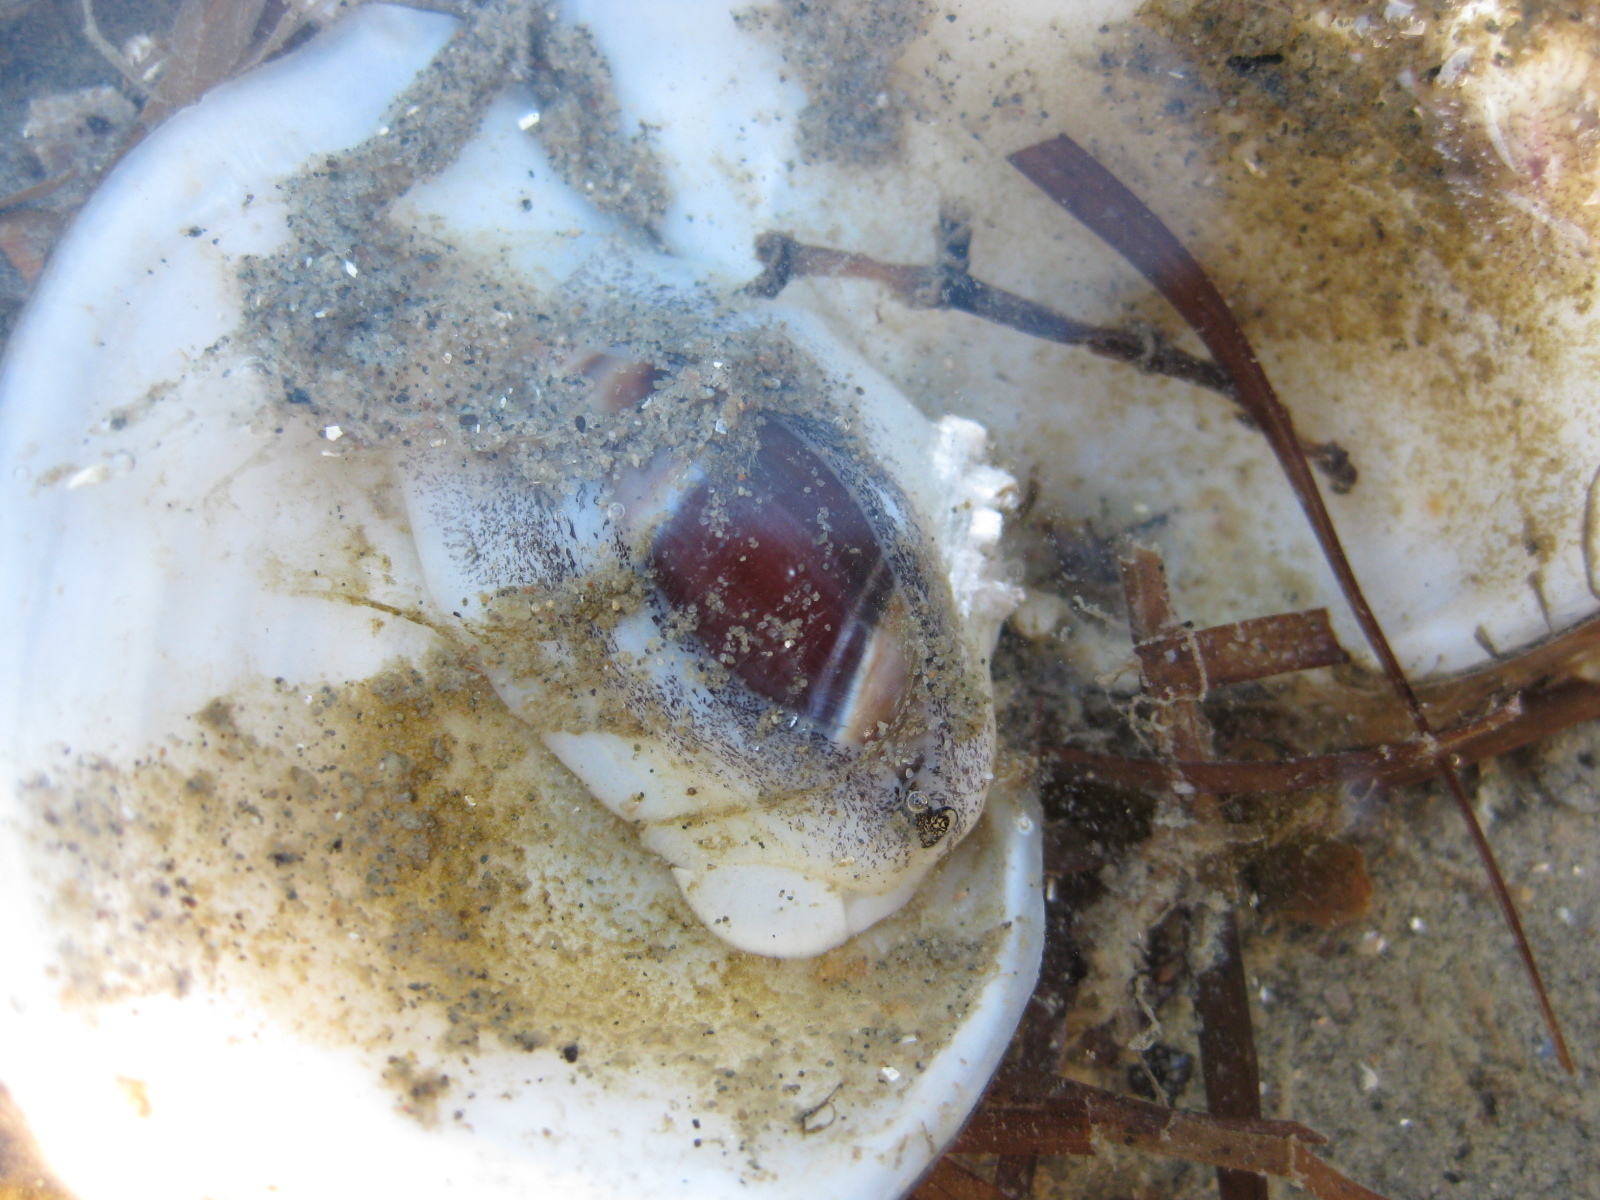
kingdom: Animalia
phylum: Mollusca
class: Gastropoda
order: Neogastropoda
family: Ancillariidae
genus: Amalda
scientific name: Amalda australis
